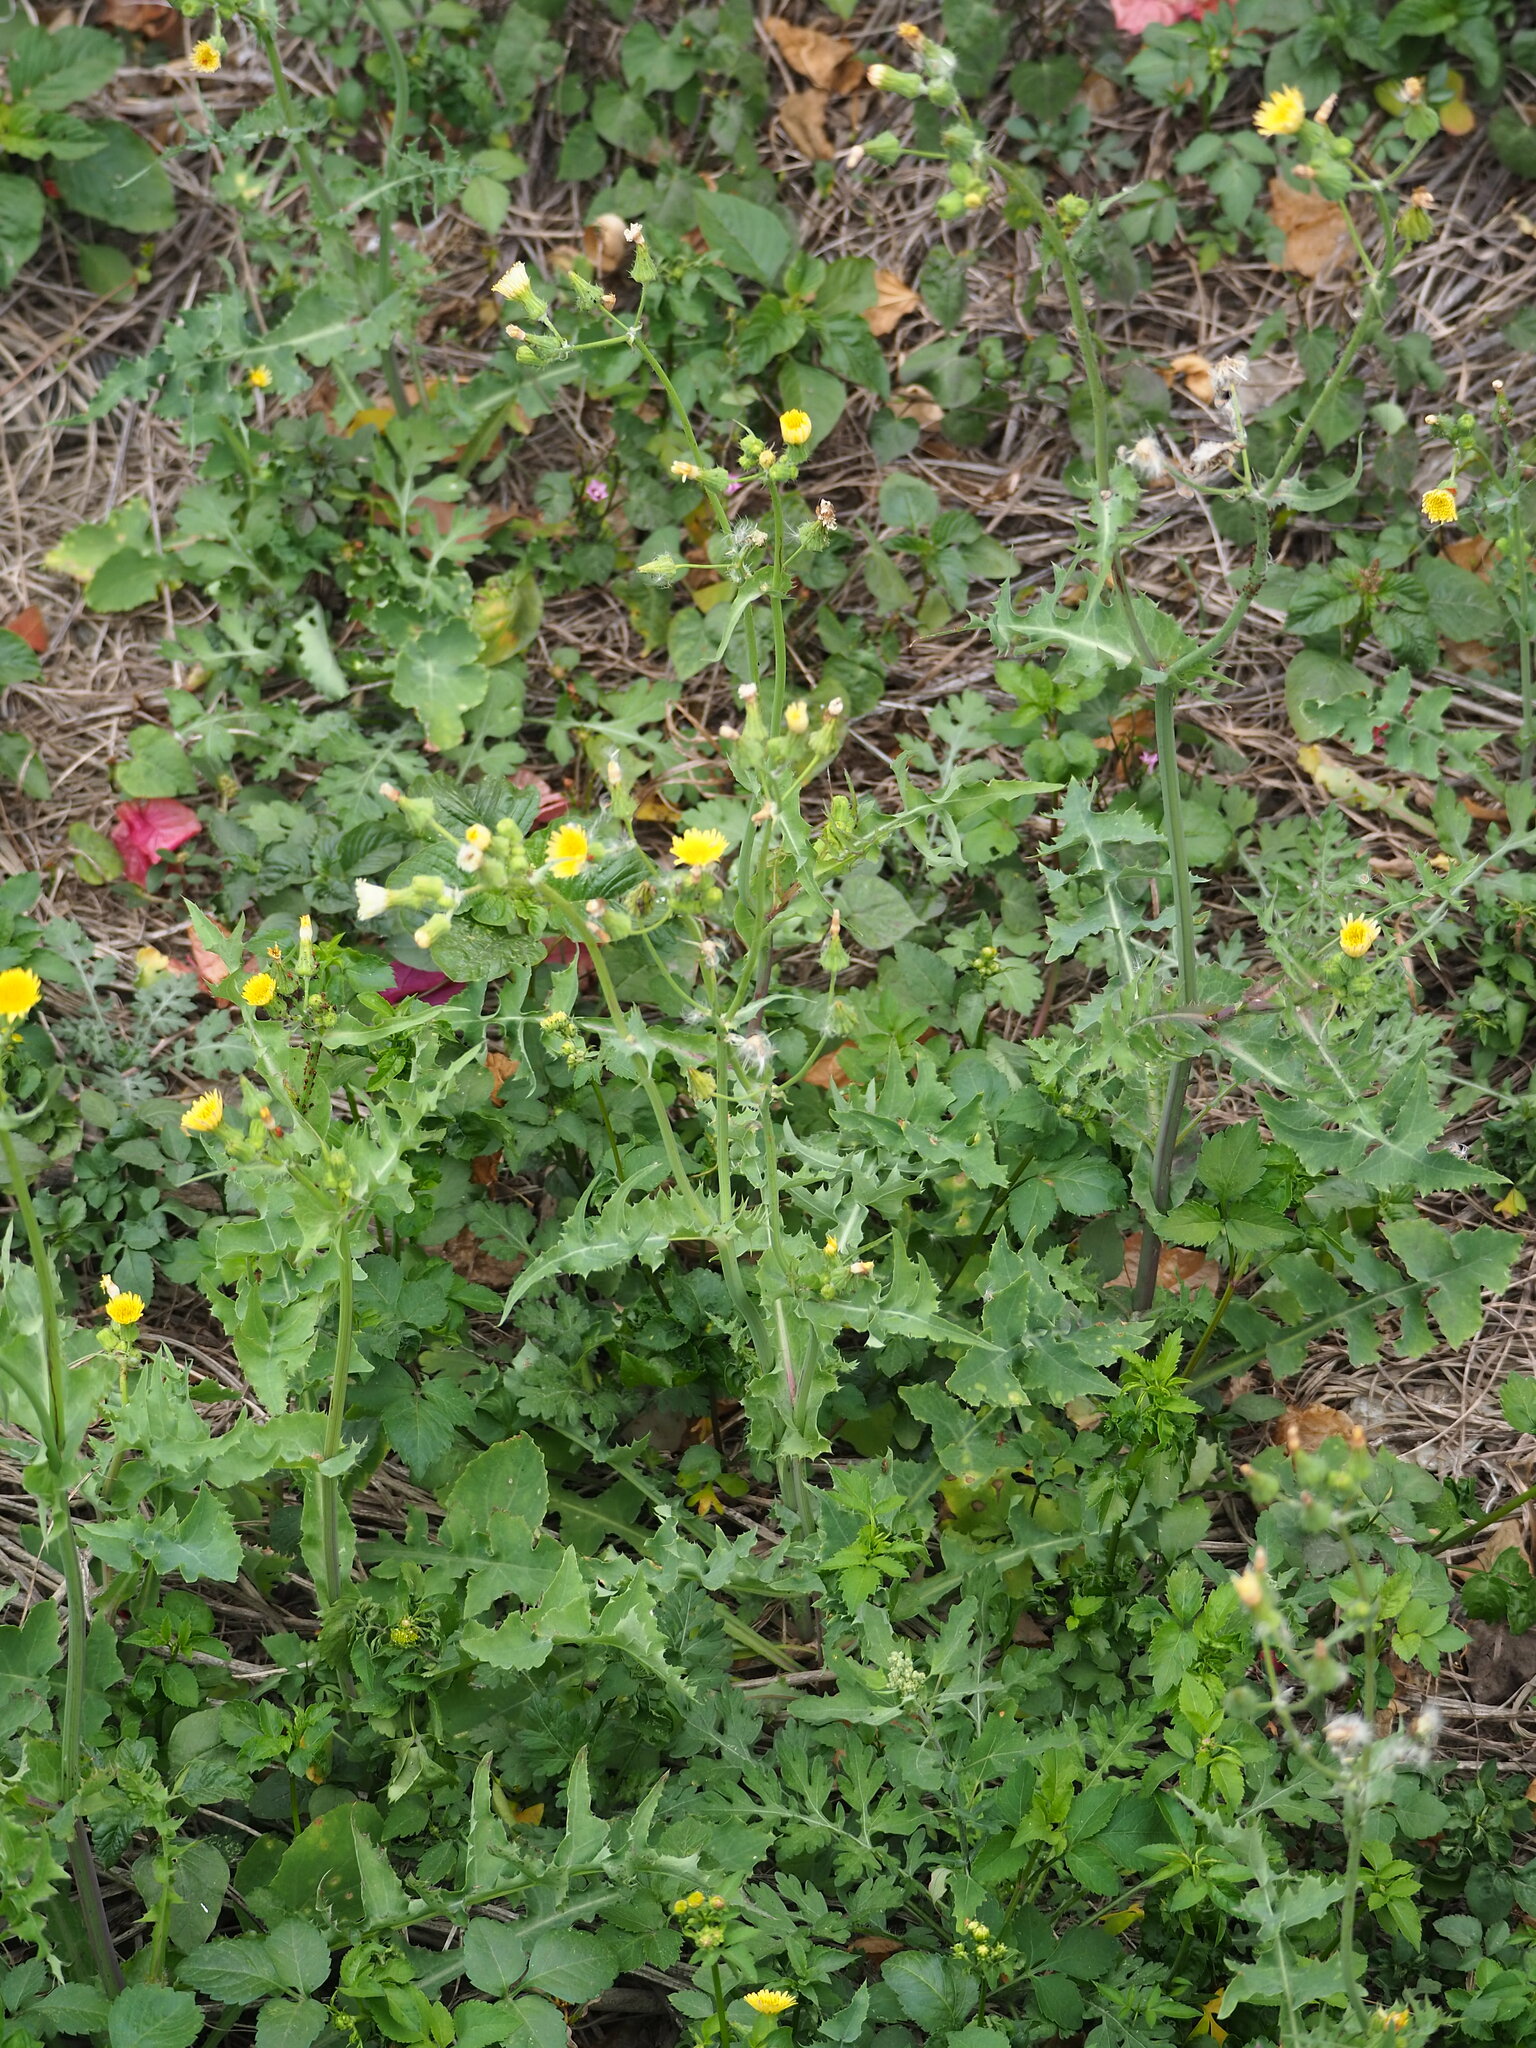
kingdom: Plantae
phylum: Tracheophyta
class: Magnoliopsida
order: Asterales
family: Asteraceae
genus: Sonchus
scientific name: Sonchus oleraceus
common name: Common sowthistle
